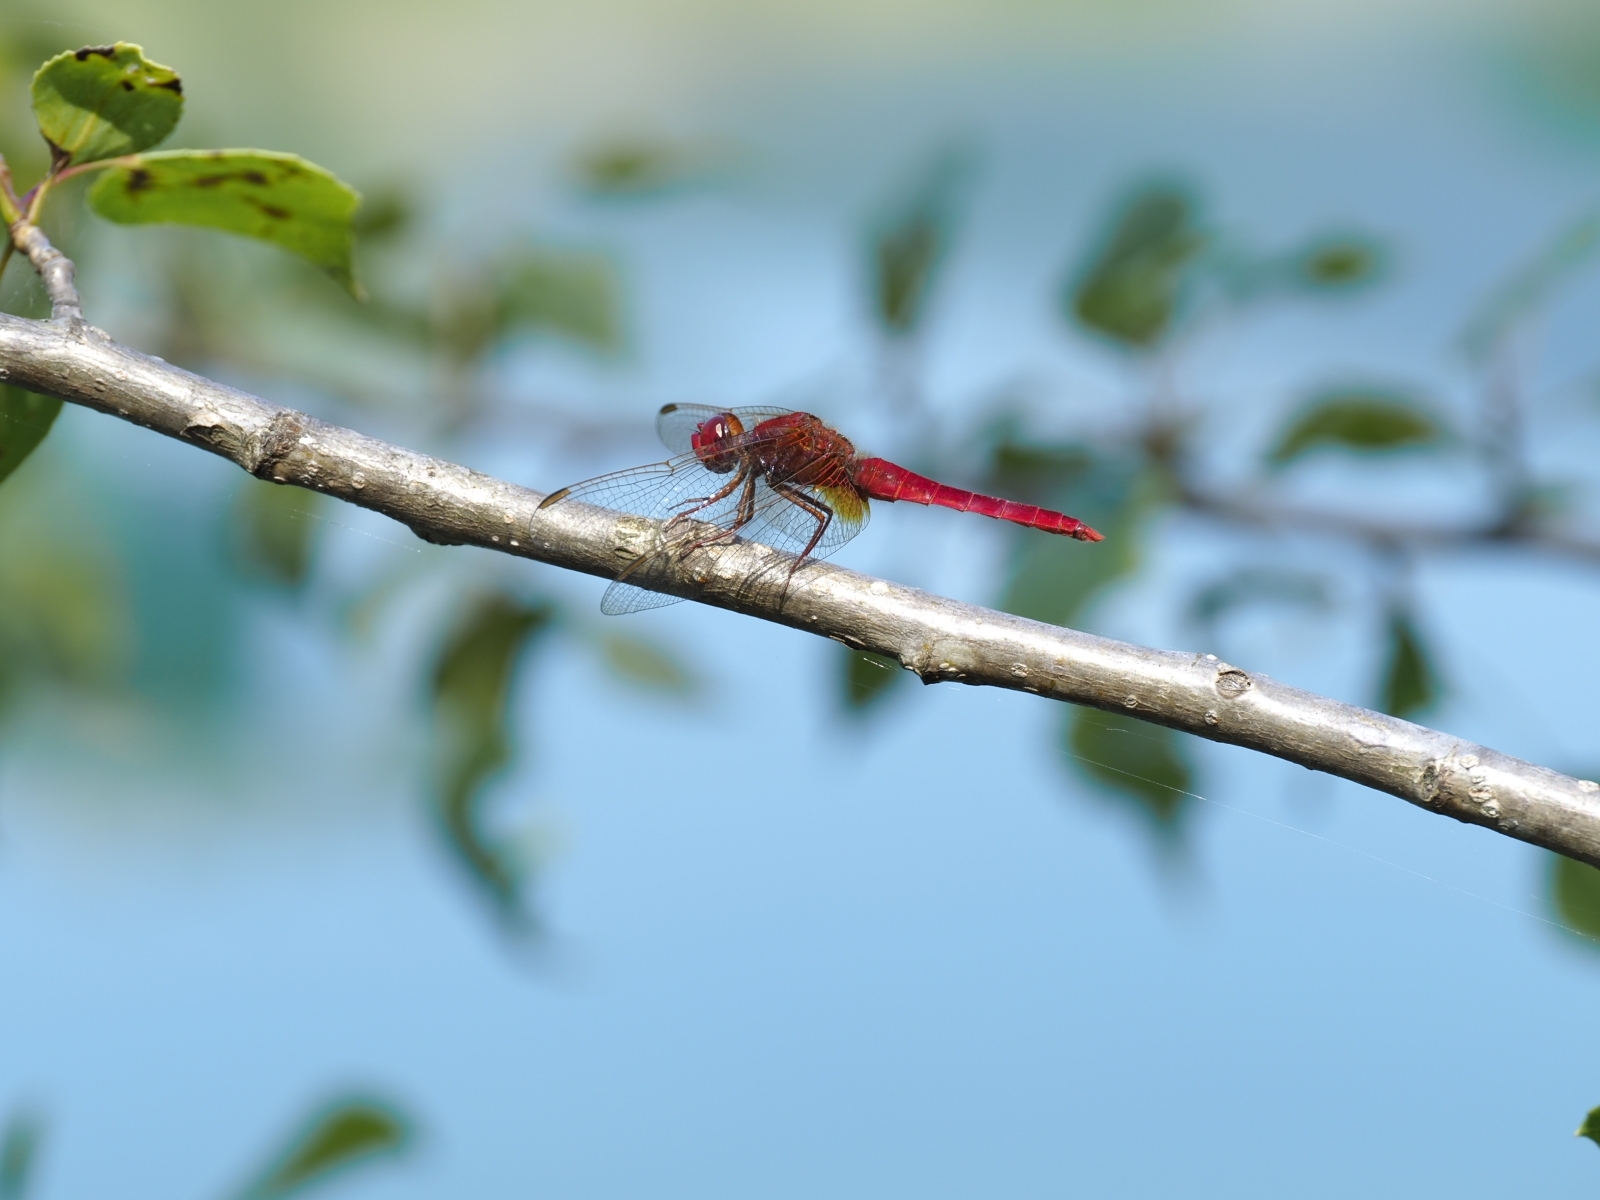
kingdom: Animalia
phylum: Arthropoda
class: Insecta
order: Odonata
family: Libellulidae
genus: Crocothemis
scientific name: Crocothemis erythraea
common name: Scarlet dragonfly
